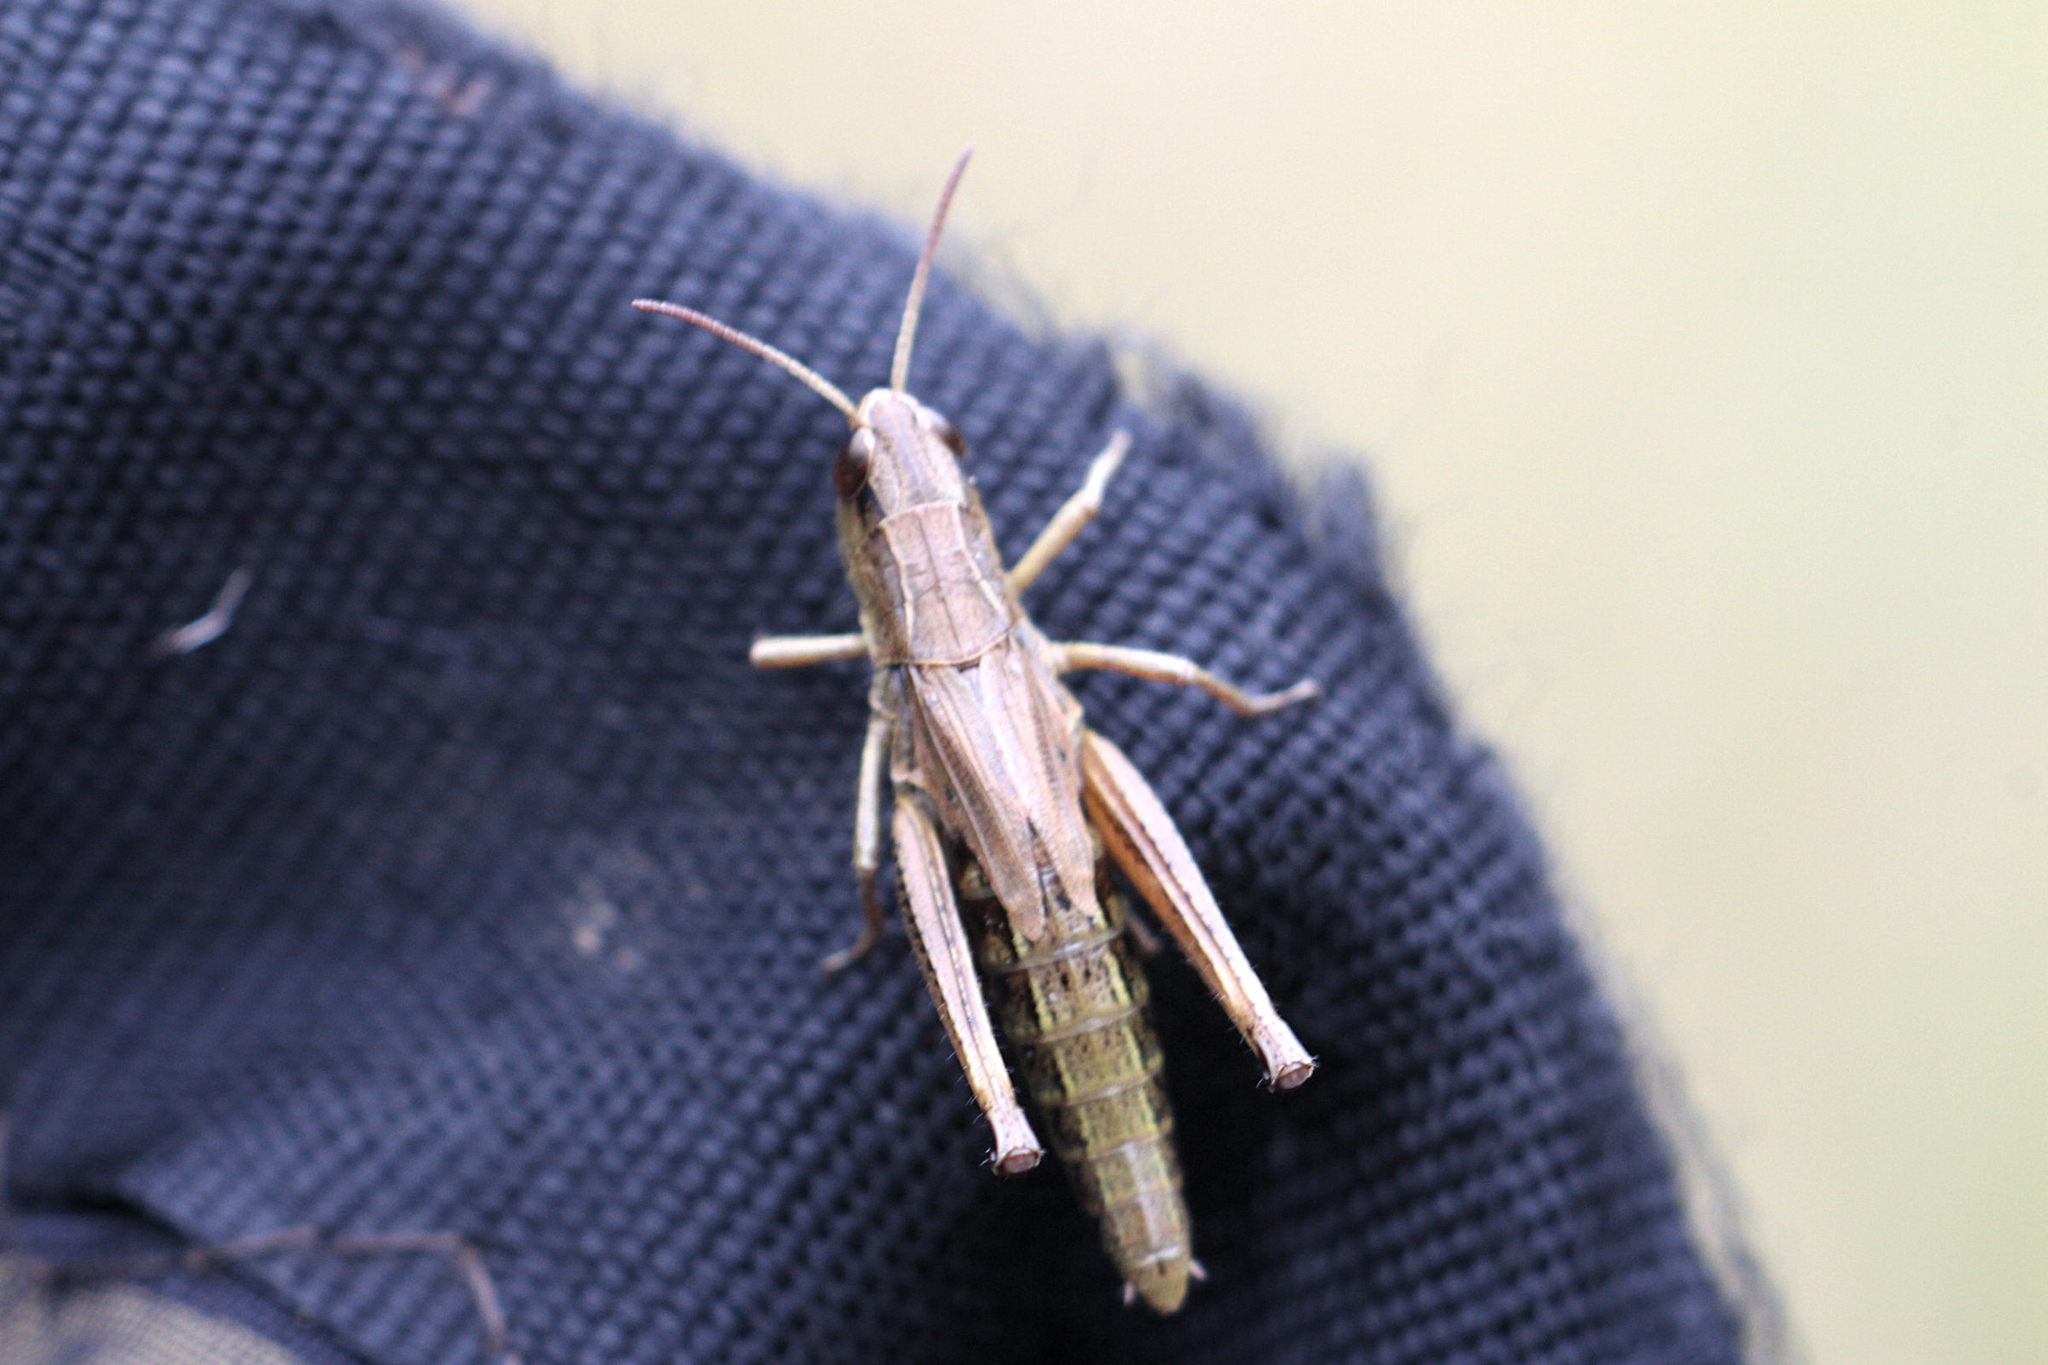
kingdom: Animalia
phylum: Arthropoda
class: Insecta
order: Orthoptera
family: Acrididae
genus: Pseudochorthippus
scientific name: Pseudochorthippus parallelus
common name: Meadow grasshopper
